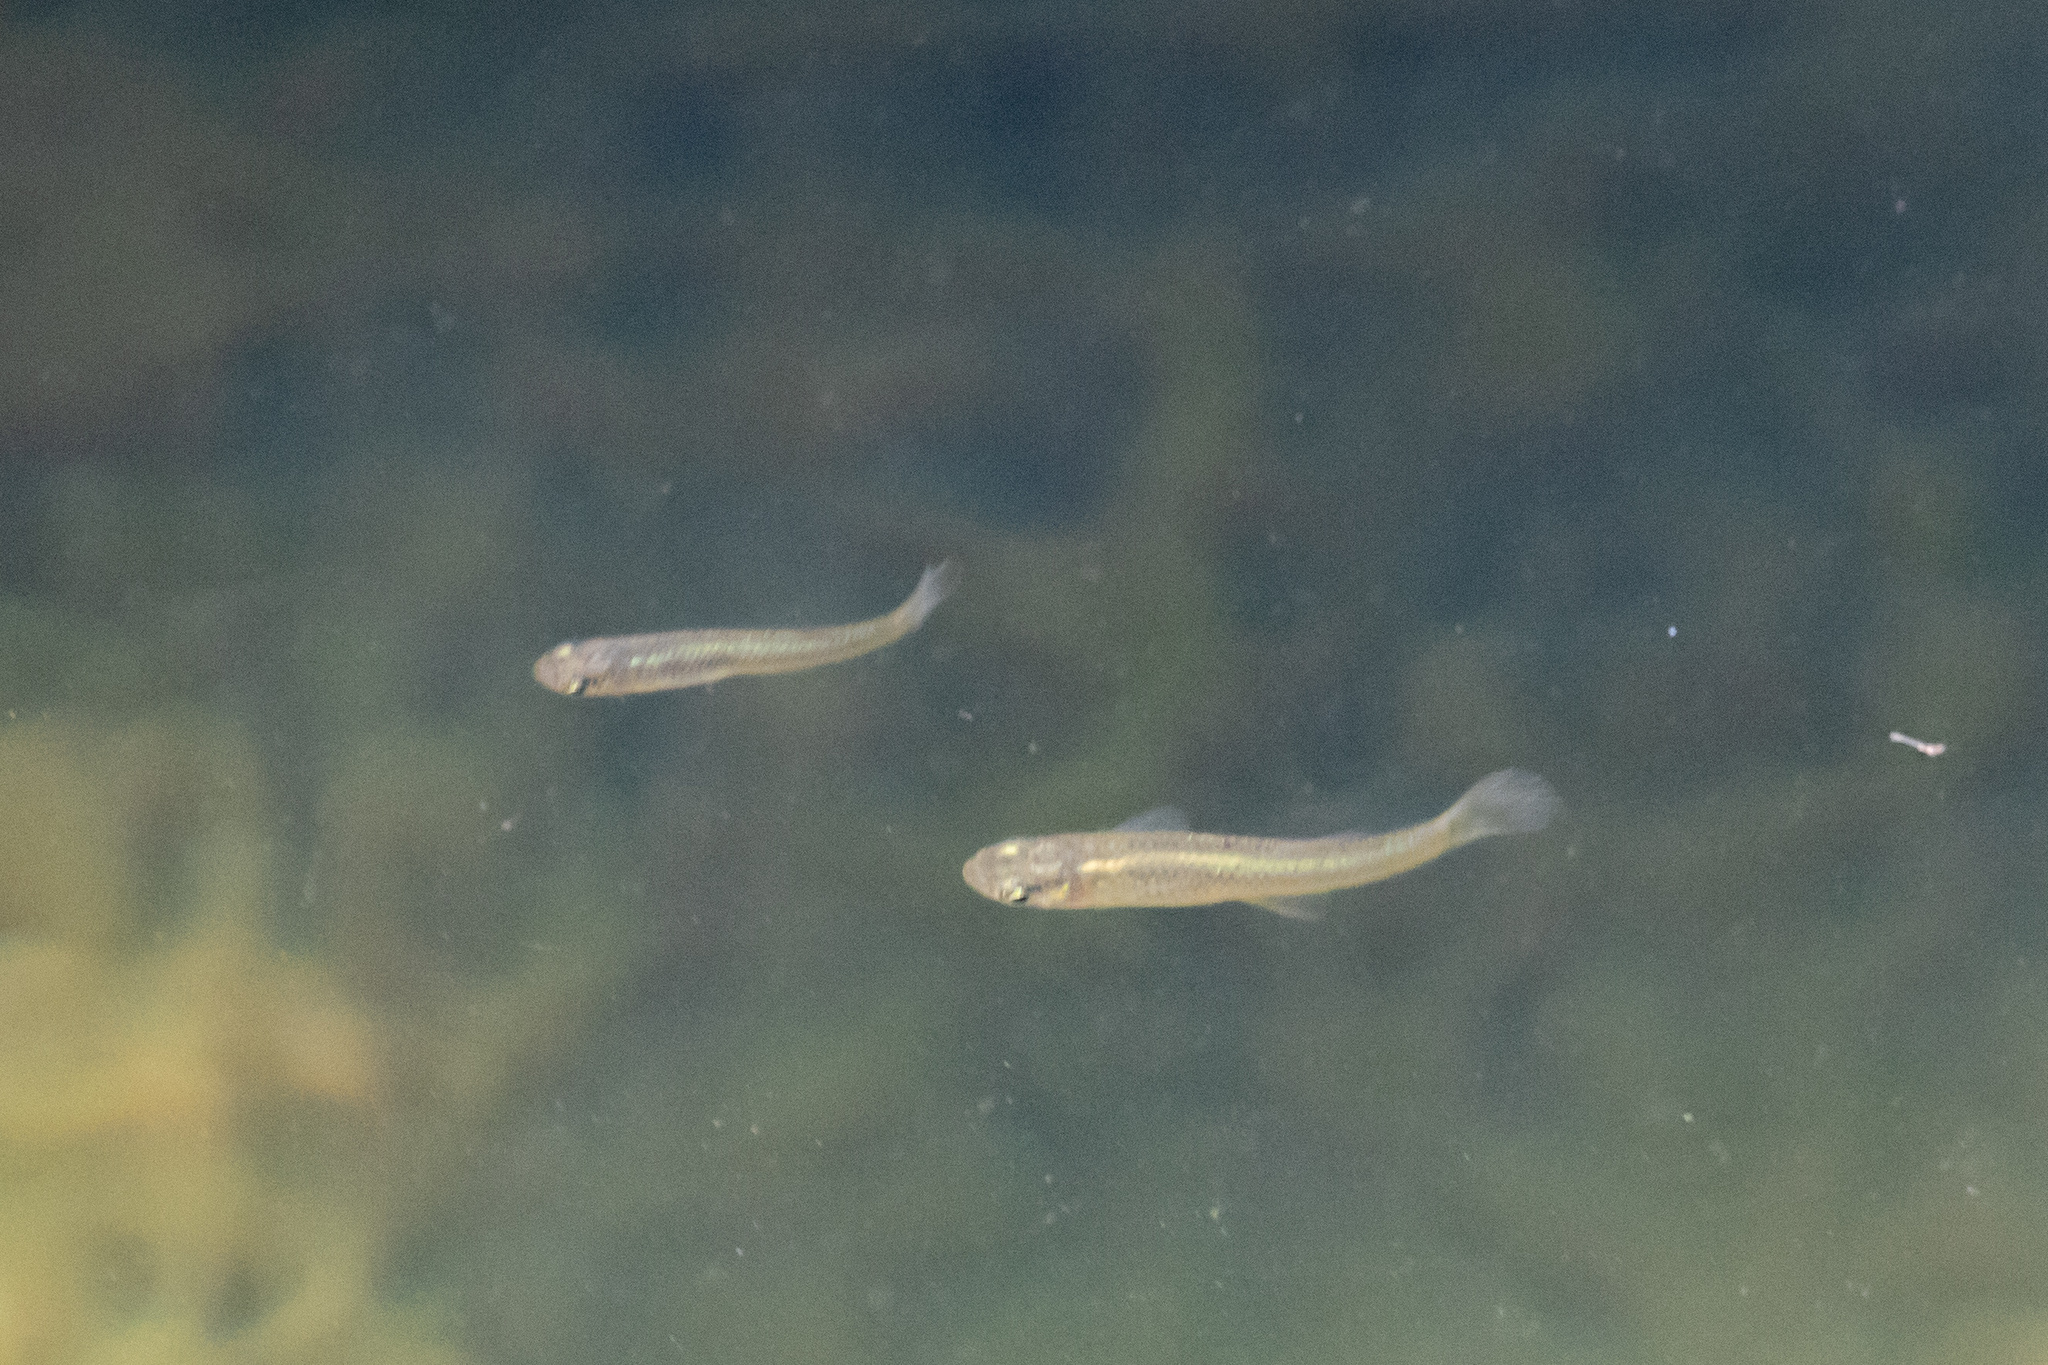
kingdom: Animalia
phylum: Chordata
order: Cyprinodontiformes
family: Poeciliidae
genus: Gambusia
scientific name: Gambusia affinis
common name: Mosquitofish
